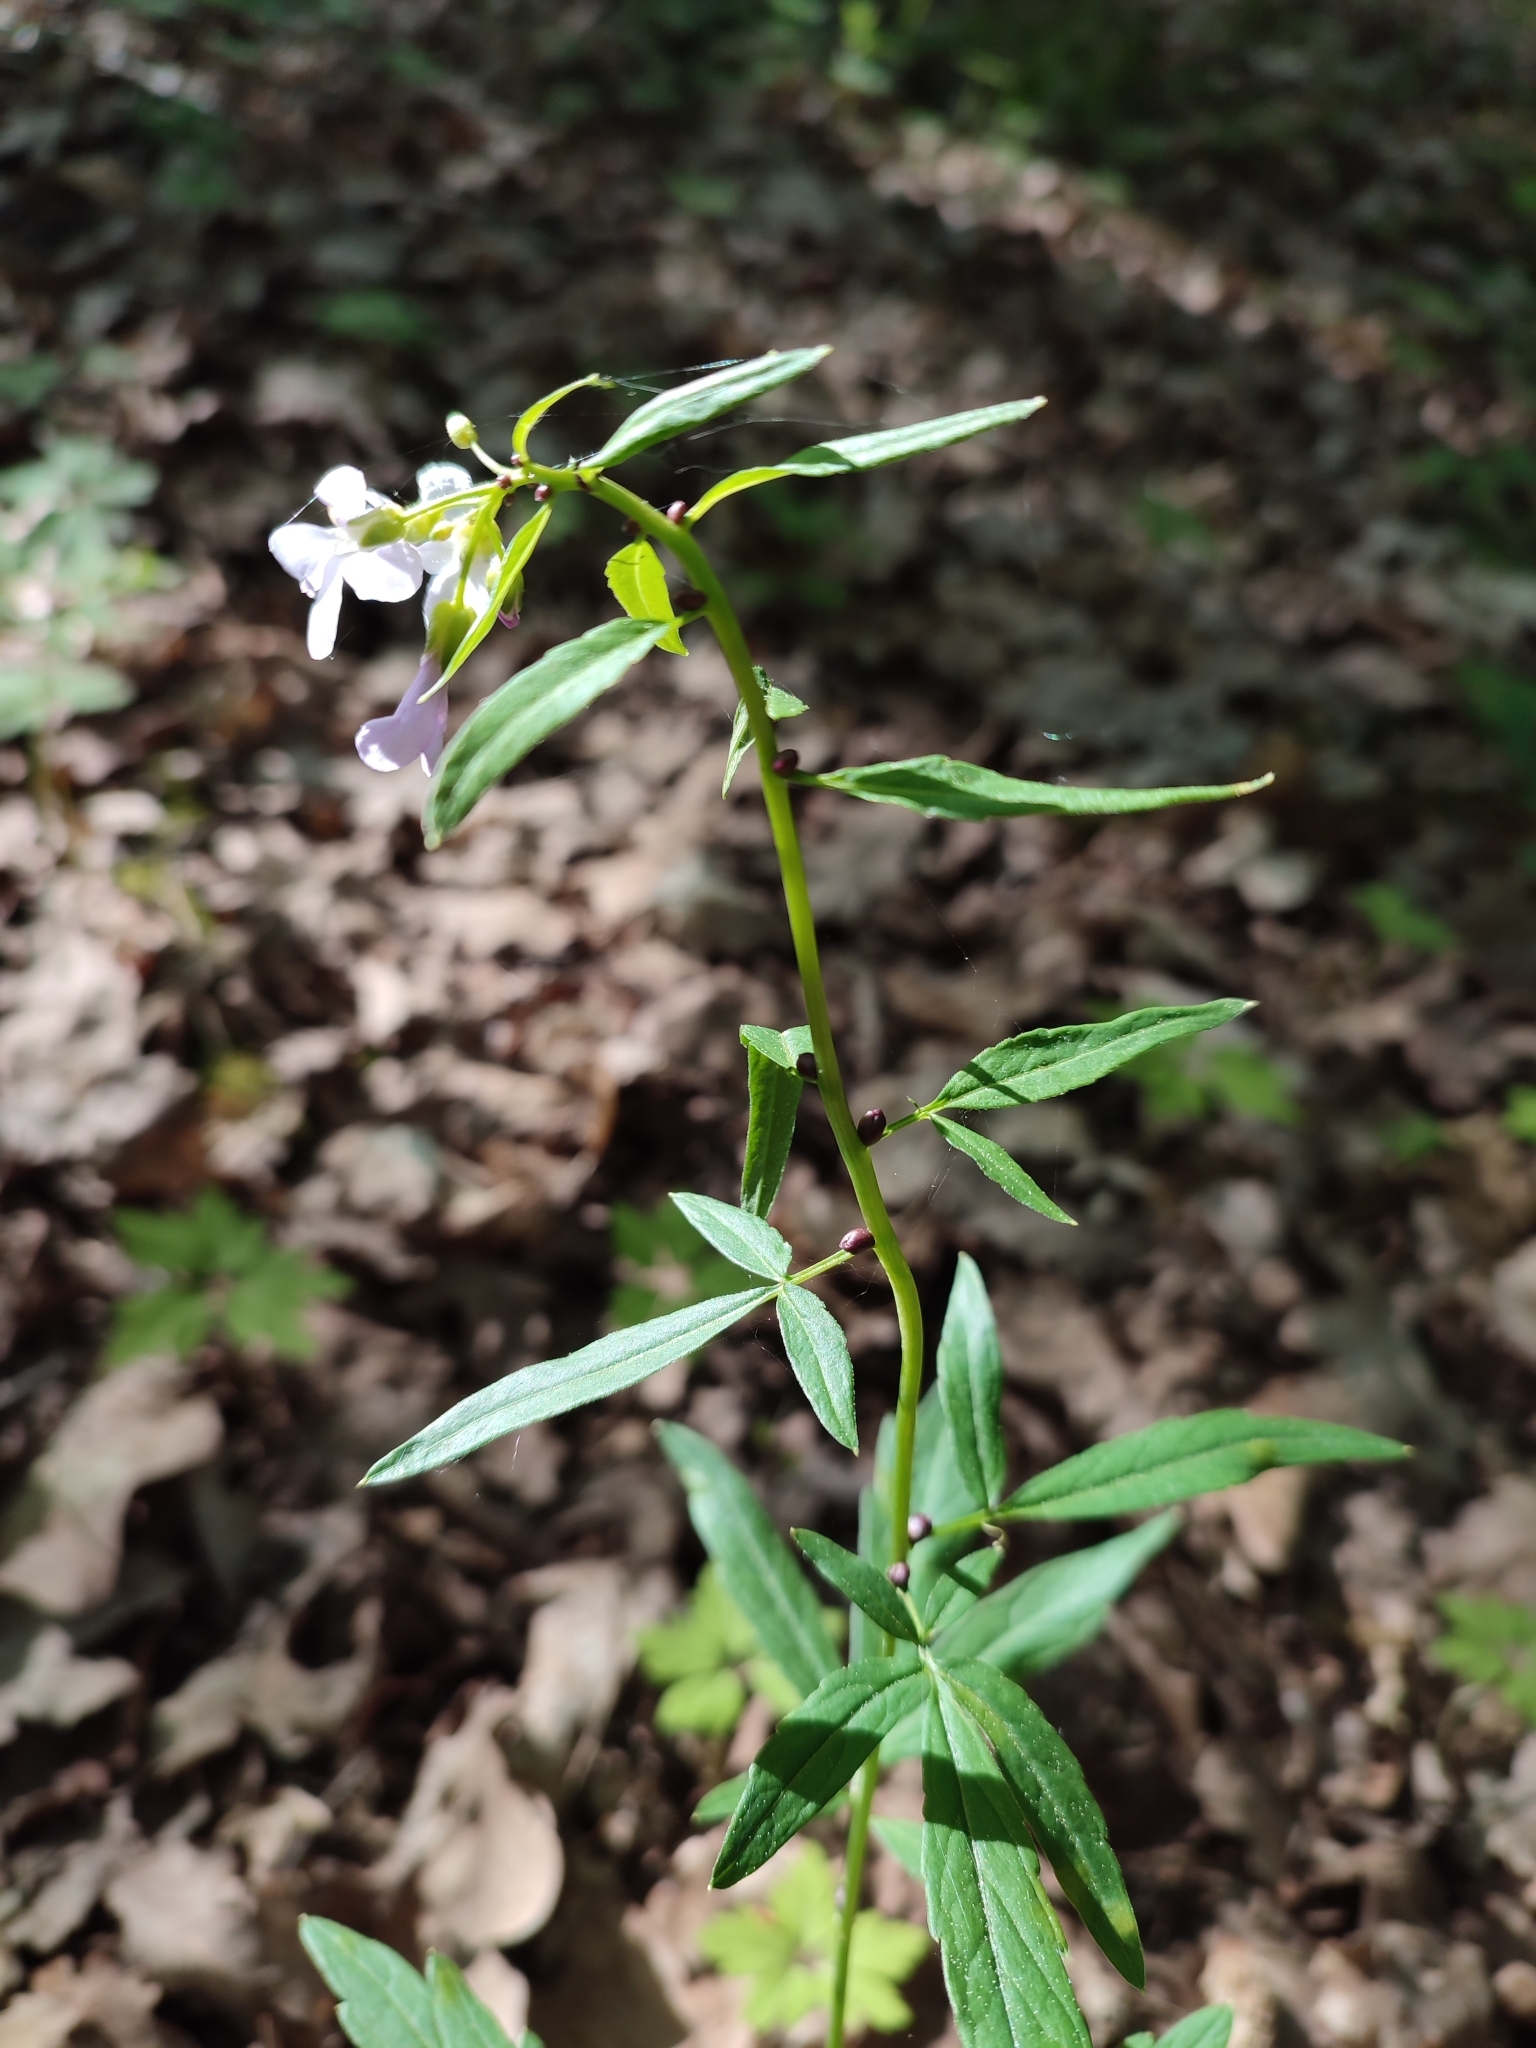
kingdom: Plantae
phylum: Tracheophyta
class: Magnoliopsida
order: Brassicales
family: Brassicaceae
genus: Cardamine
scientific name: Cardamine bulbifera
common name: Coralroot bittercress
